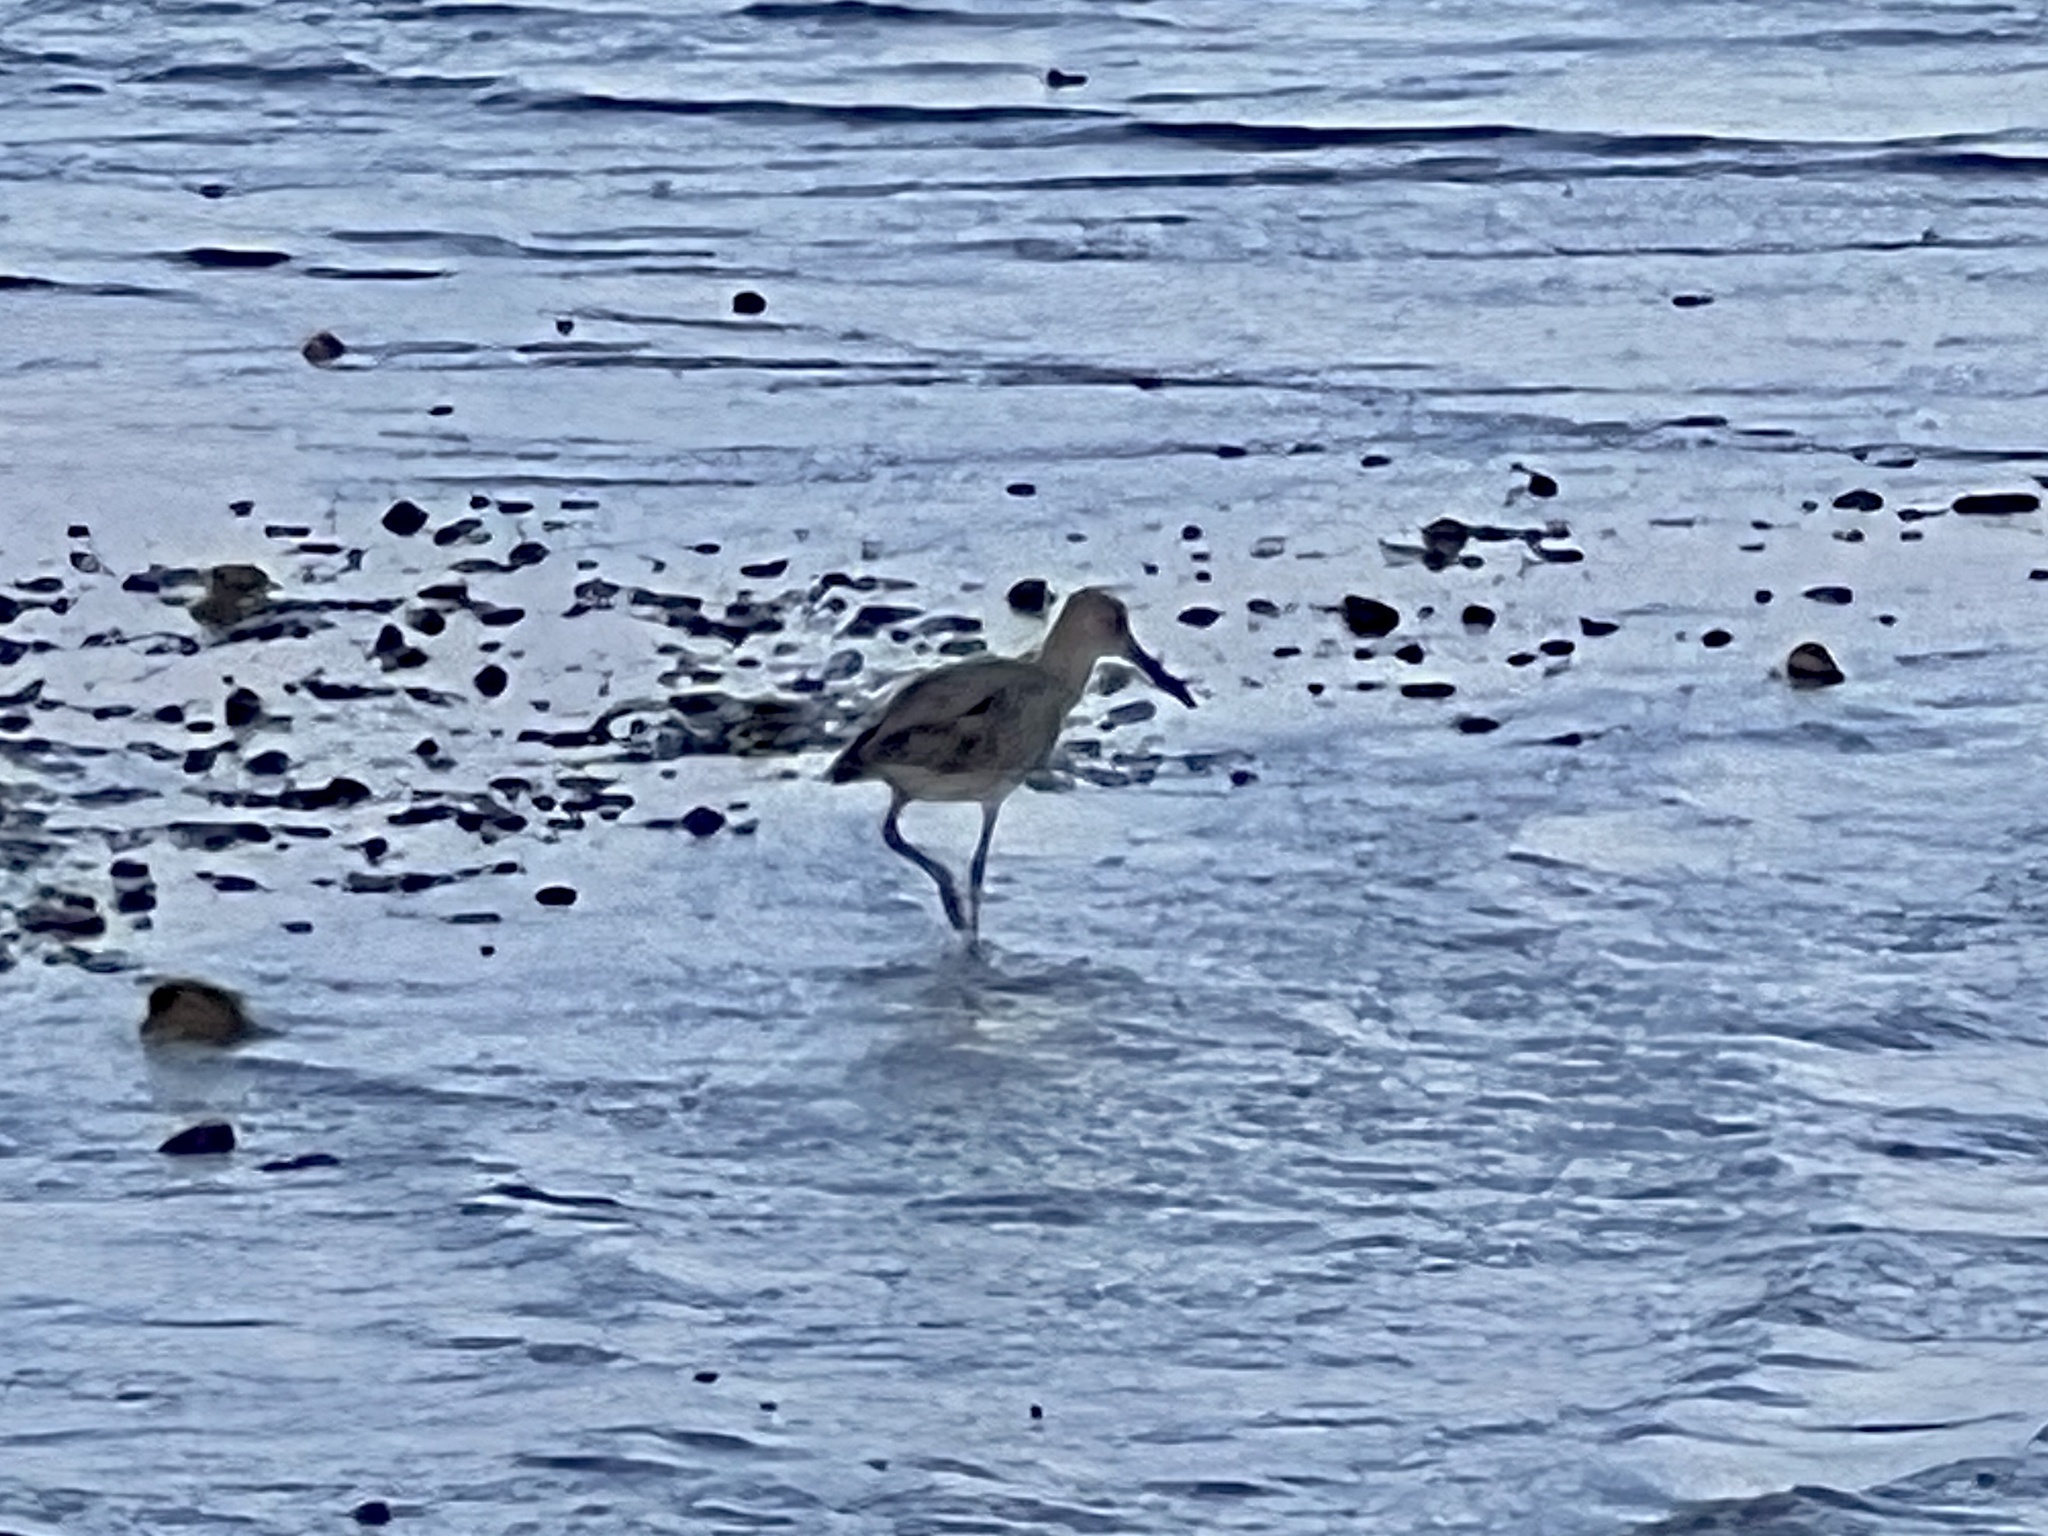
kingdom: Animalia
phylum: Chordata
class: Aves
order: Charadriiformes
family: Scolopacidae
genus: Tringa
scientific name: Tringa semipalmata
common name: Willet
